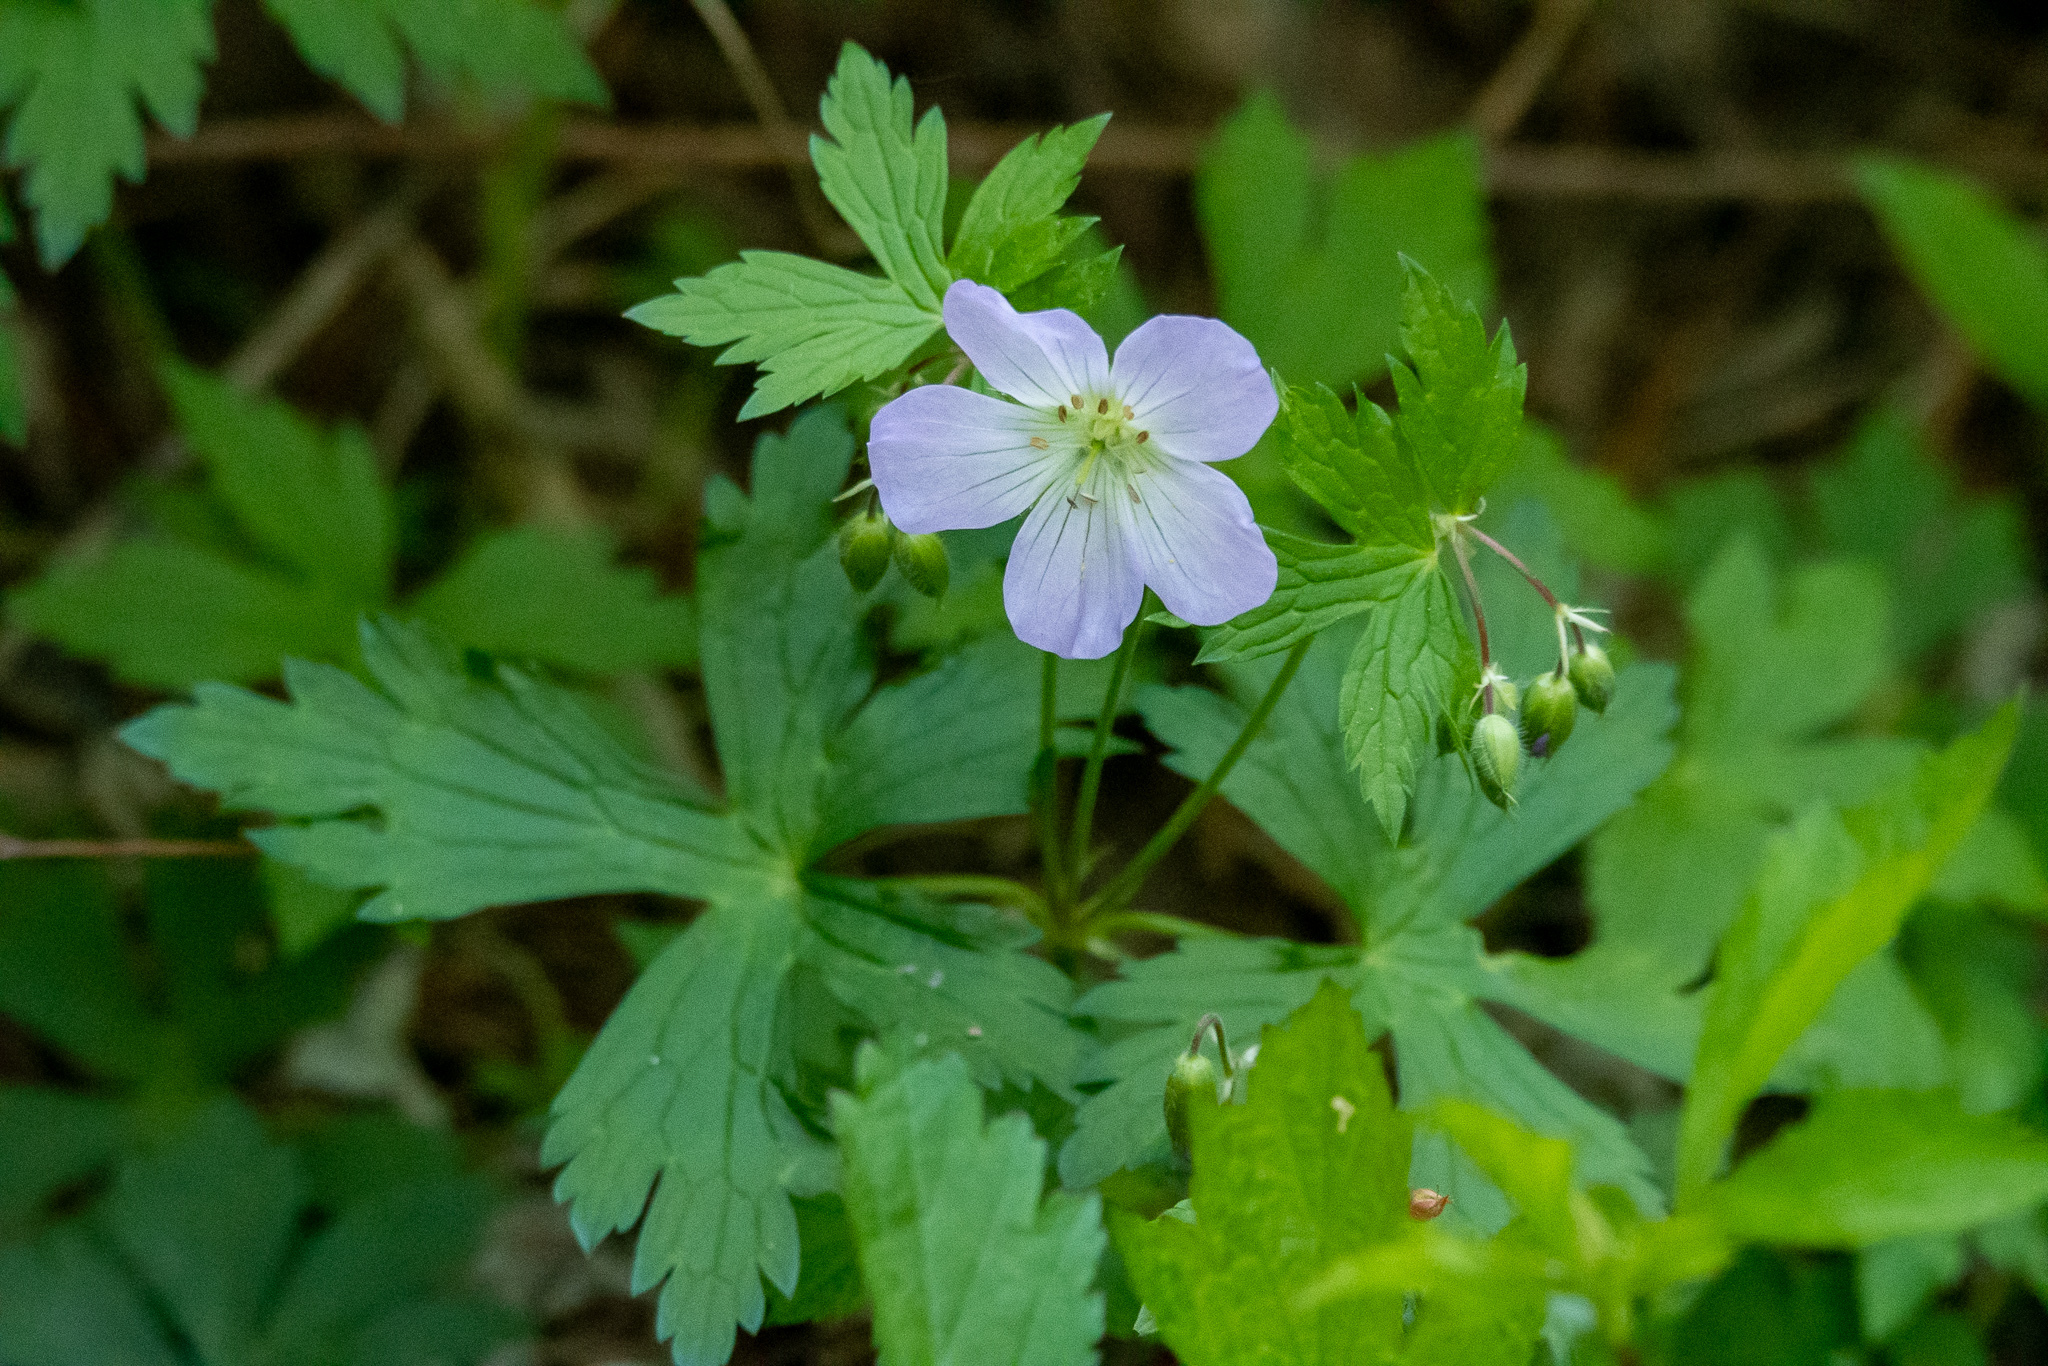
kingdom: Plantae
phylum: Tracheophyta
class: Magnoliopsida
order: Geraniales
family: Geraniaceae
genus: Geranium
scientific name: Geranium maculatum
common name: Spotted geranium
